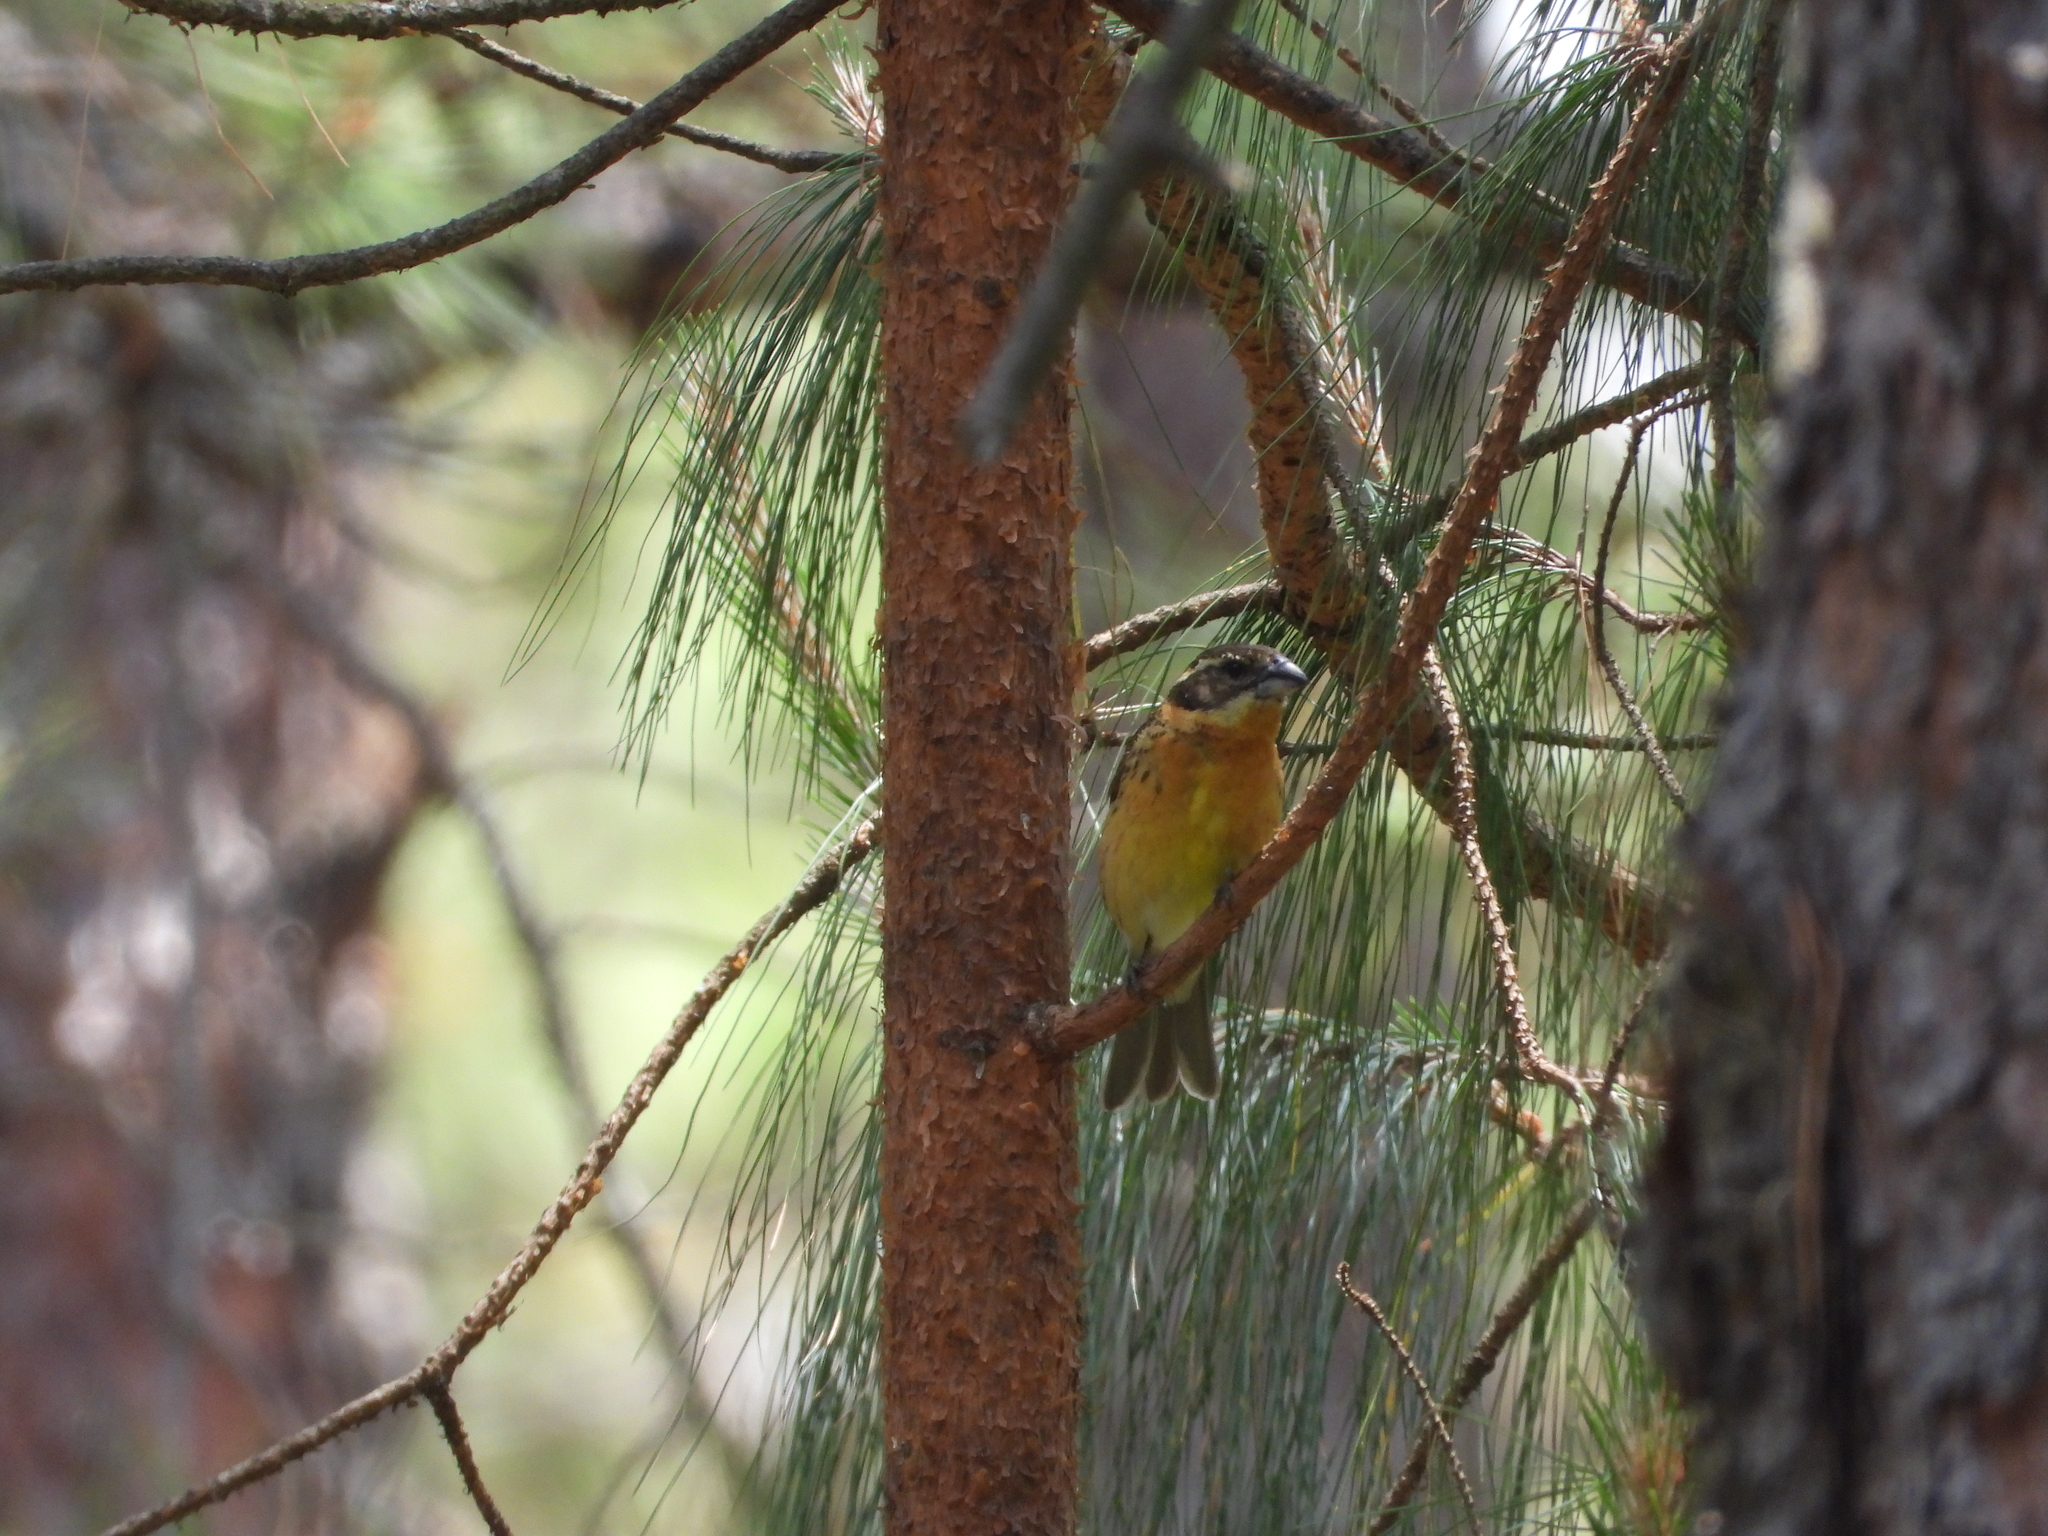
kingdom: Animalia
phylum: Chordata
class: Aves
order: Passeriformes
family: Cardinalidae
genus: Pheucticus
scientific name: Pheucticus melanocephalus
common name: Black-headed grosbeak
